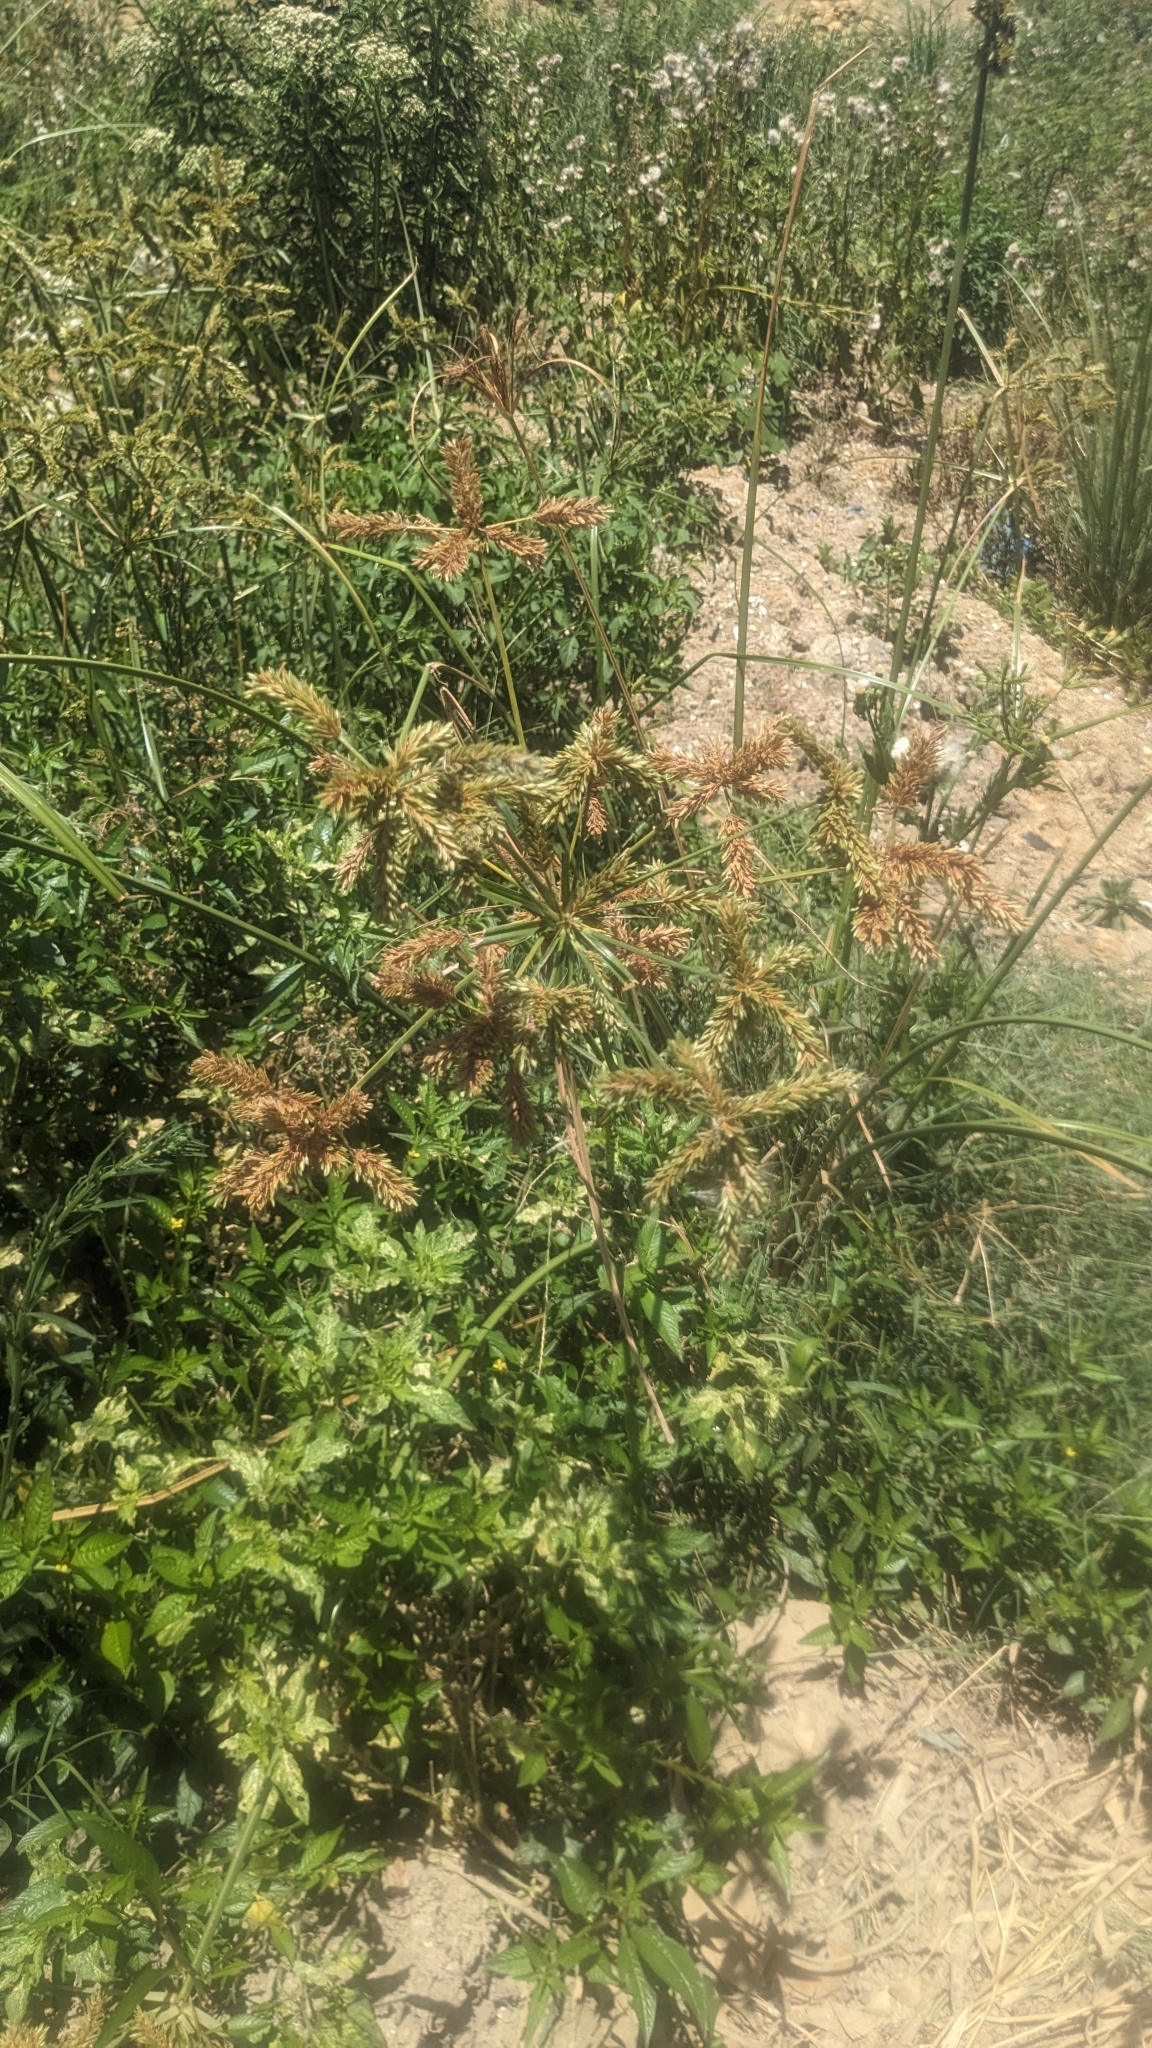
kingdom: Plantae
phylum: Tracheophyta
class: Liliopsida
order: Poales
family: Cyperaceae
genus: Cyperus
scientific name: Cyperus imbricatus
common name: Shingle flatsedge
